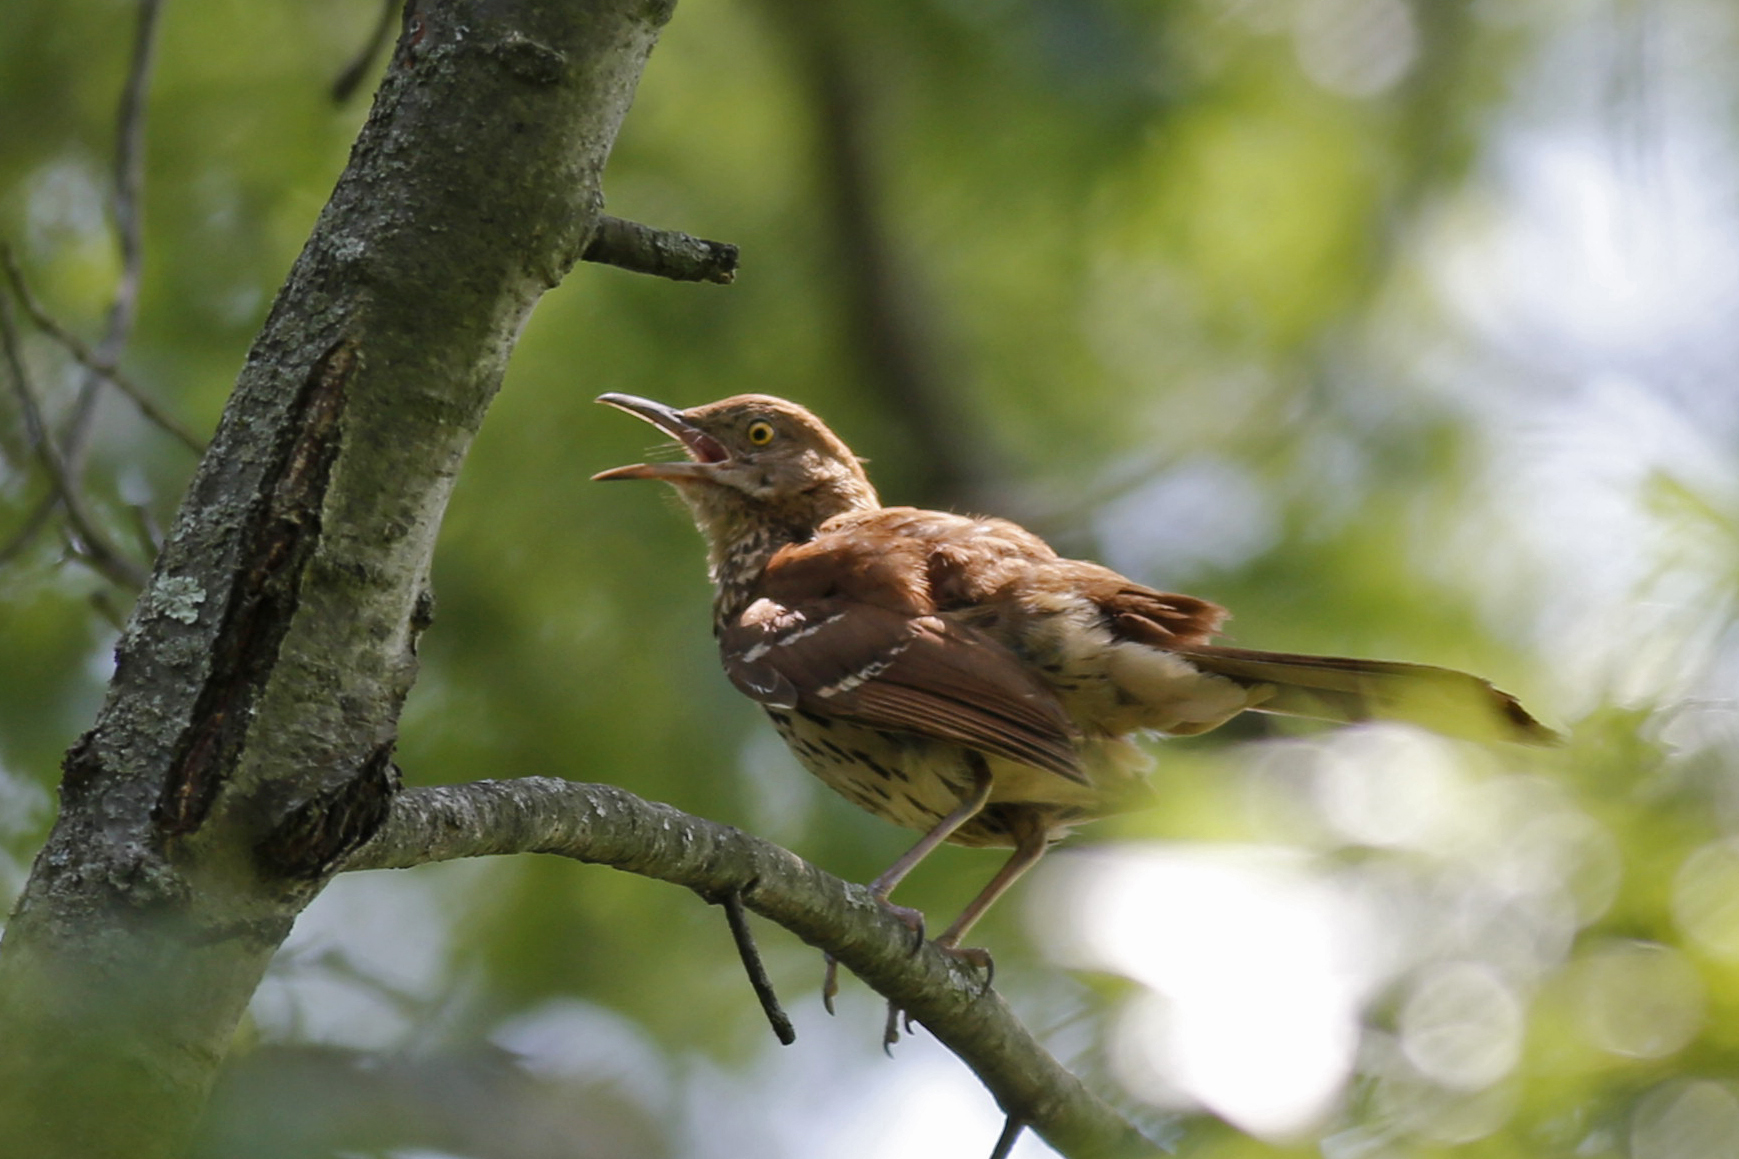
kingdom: Animalia
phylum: Chordata
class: Aves
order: Passeriformes
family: Mimidae
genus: Toxostoma
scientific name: Toxostoma rufum
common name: Brown thrasher
